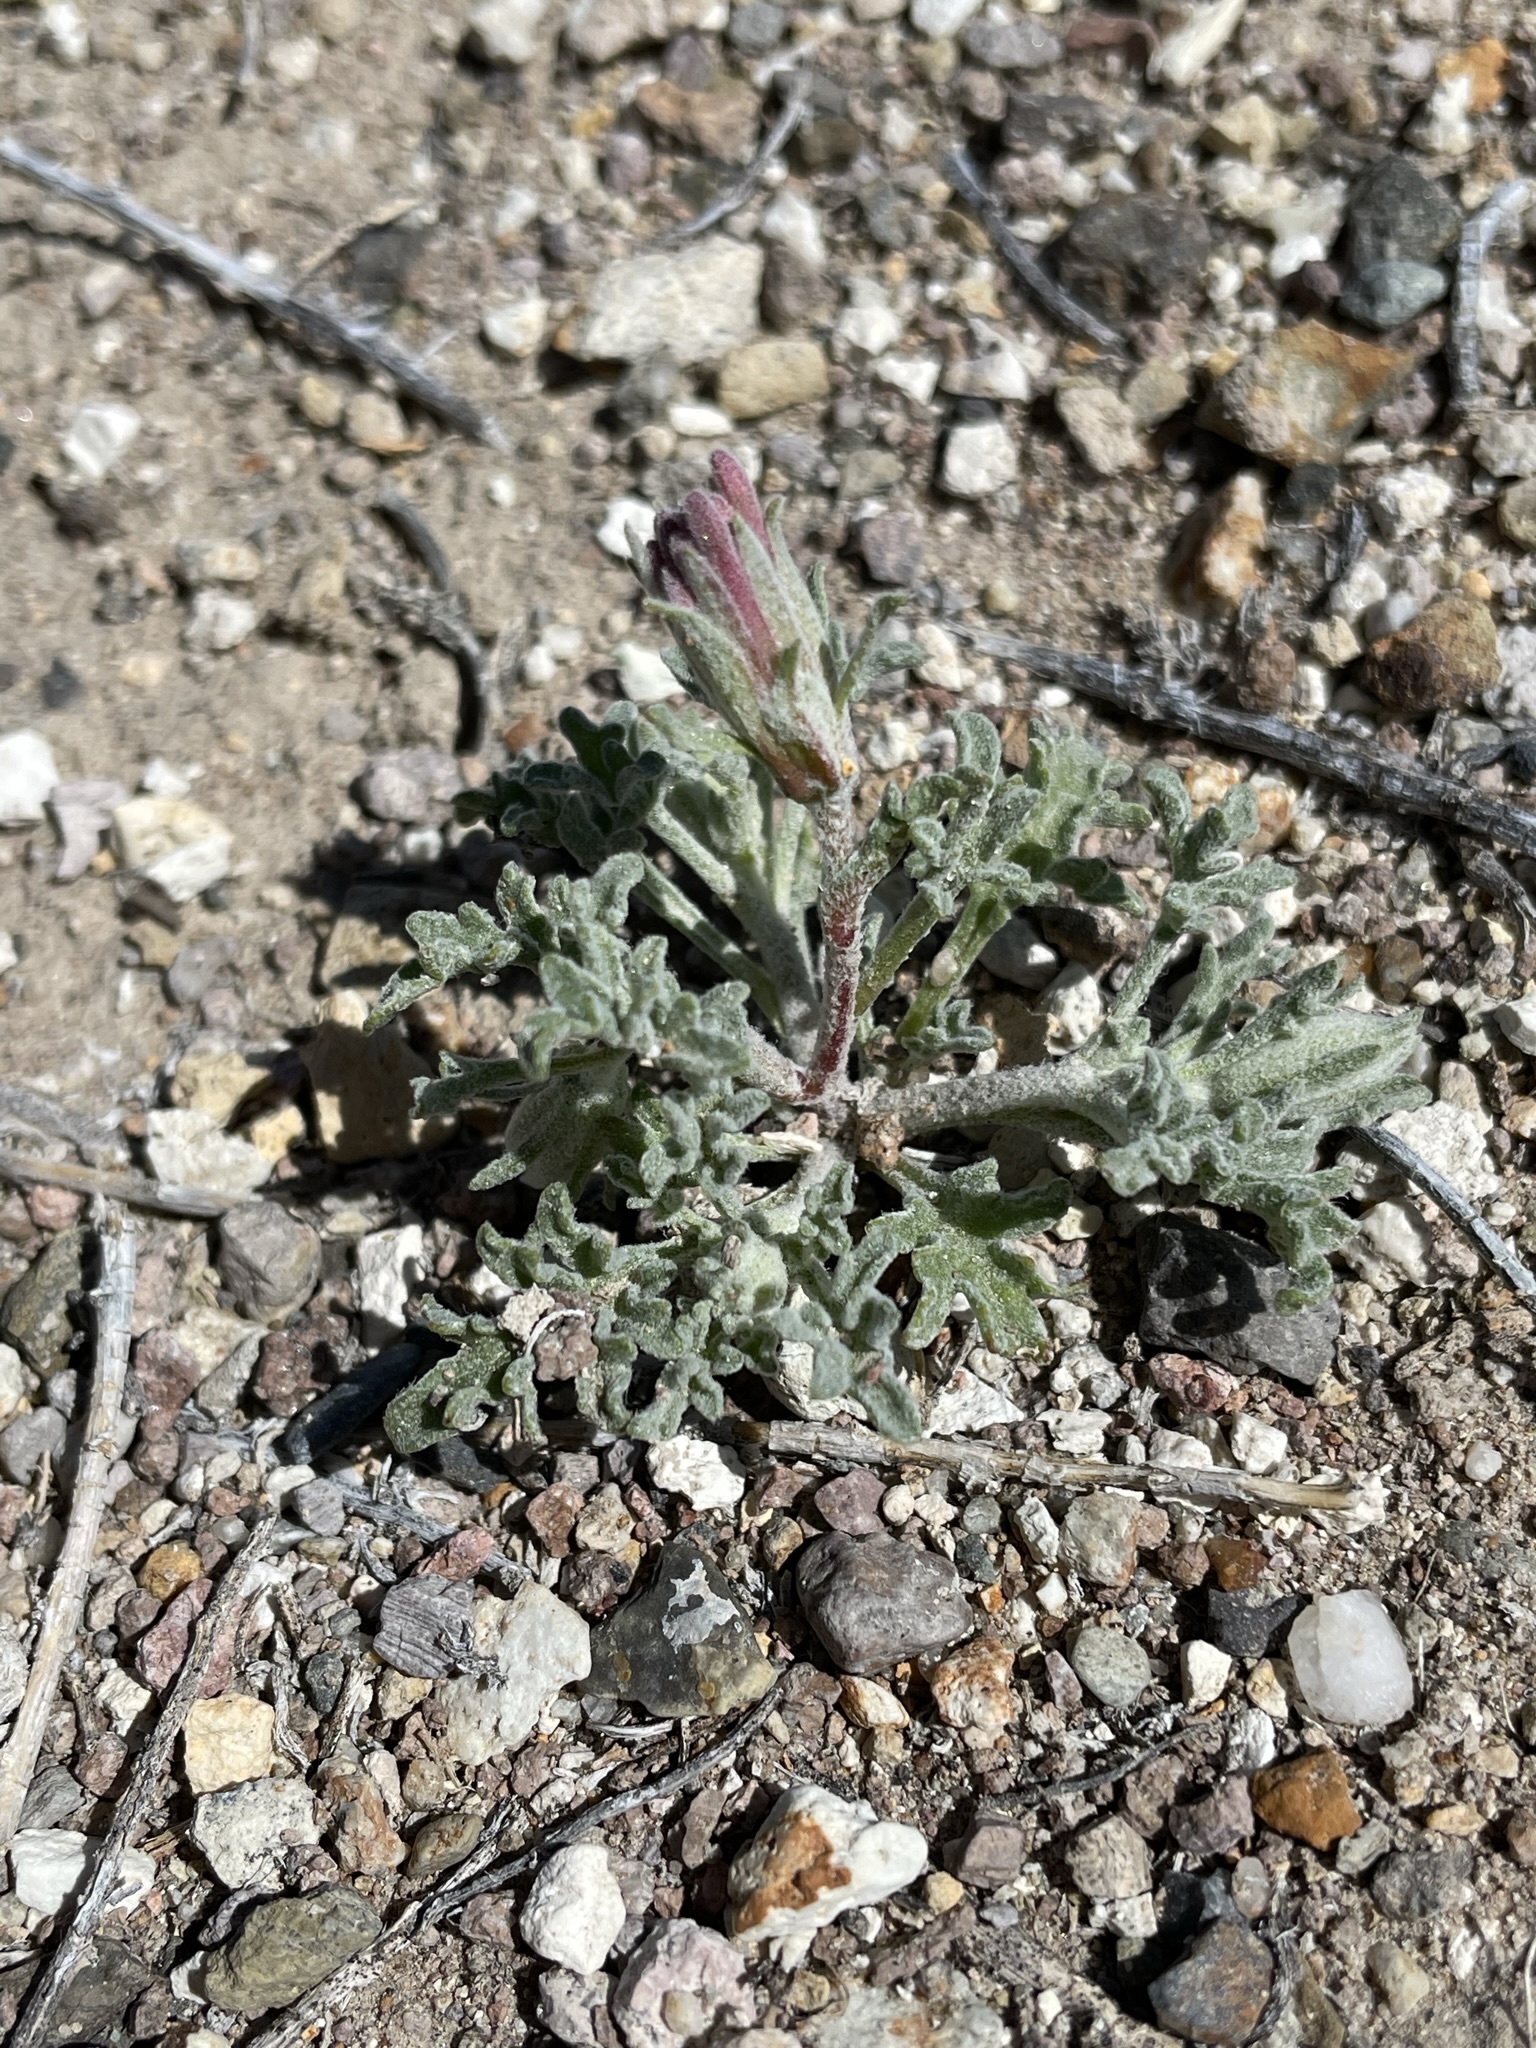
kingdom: Plantae
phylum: Tracheophyta
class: Magnoliopsida
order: Asterales
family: Asteraceae
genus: Chaenactis
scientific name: Chaenactis macrantha
